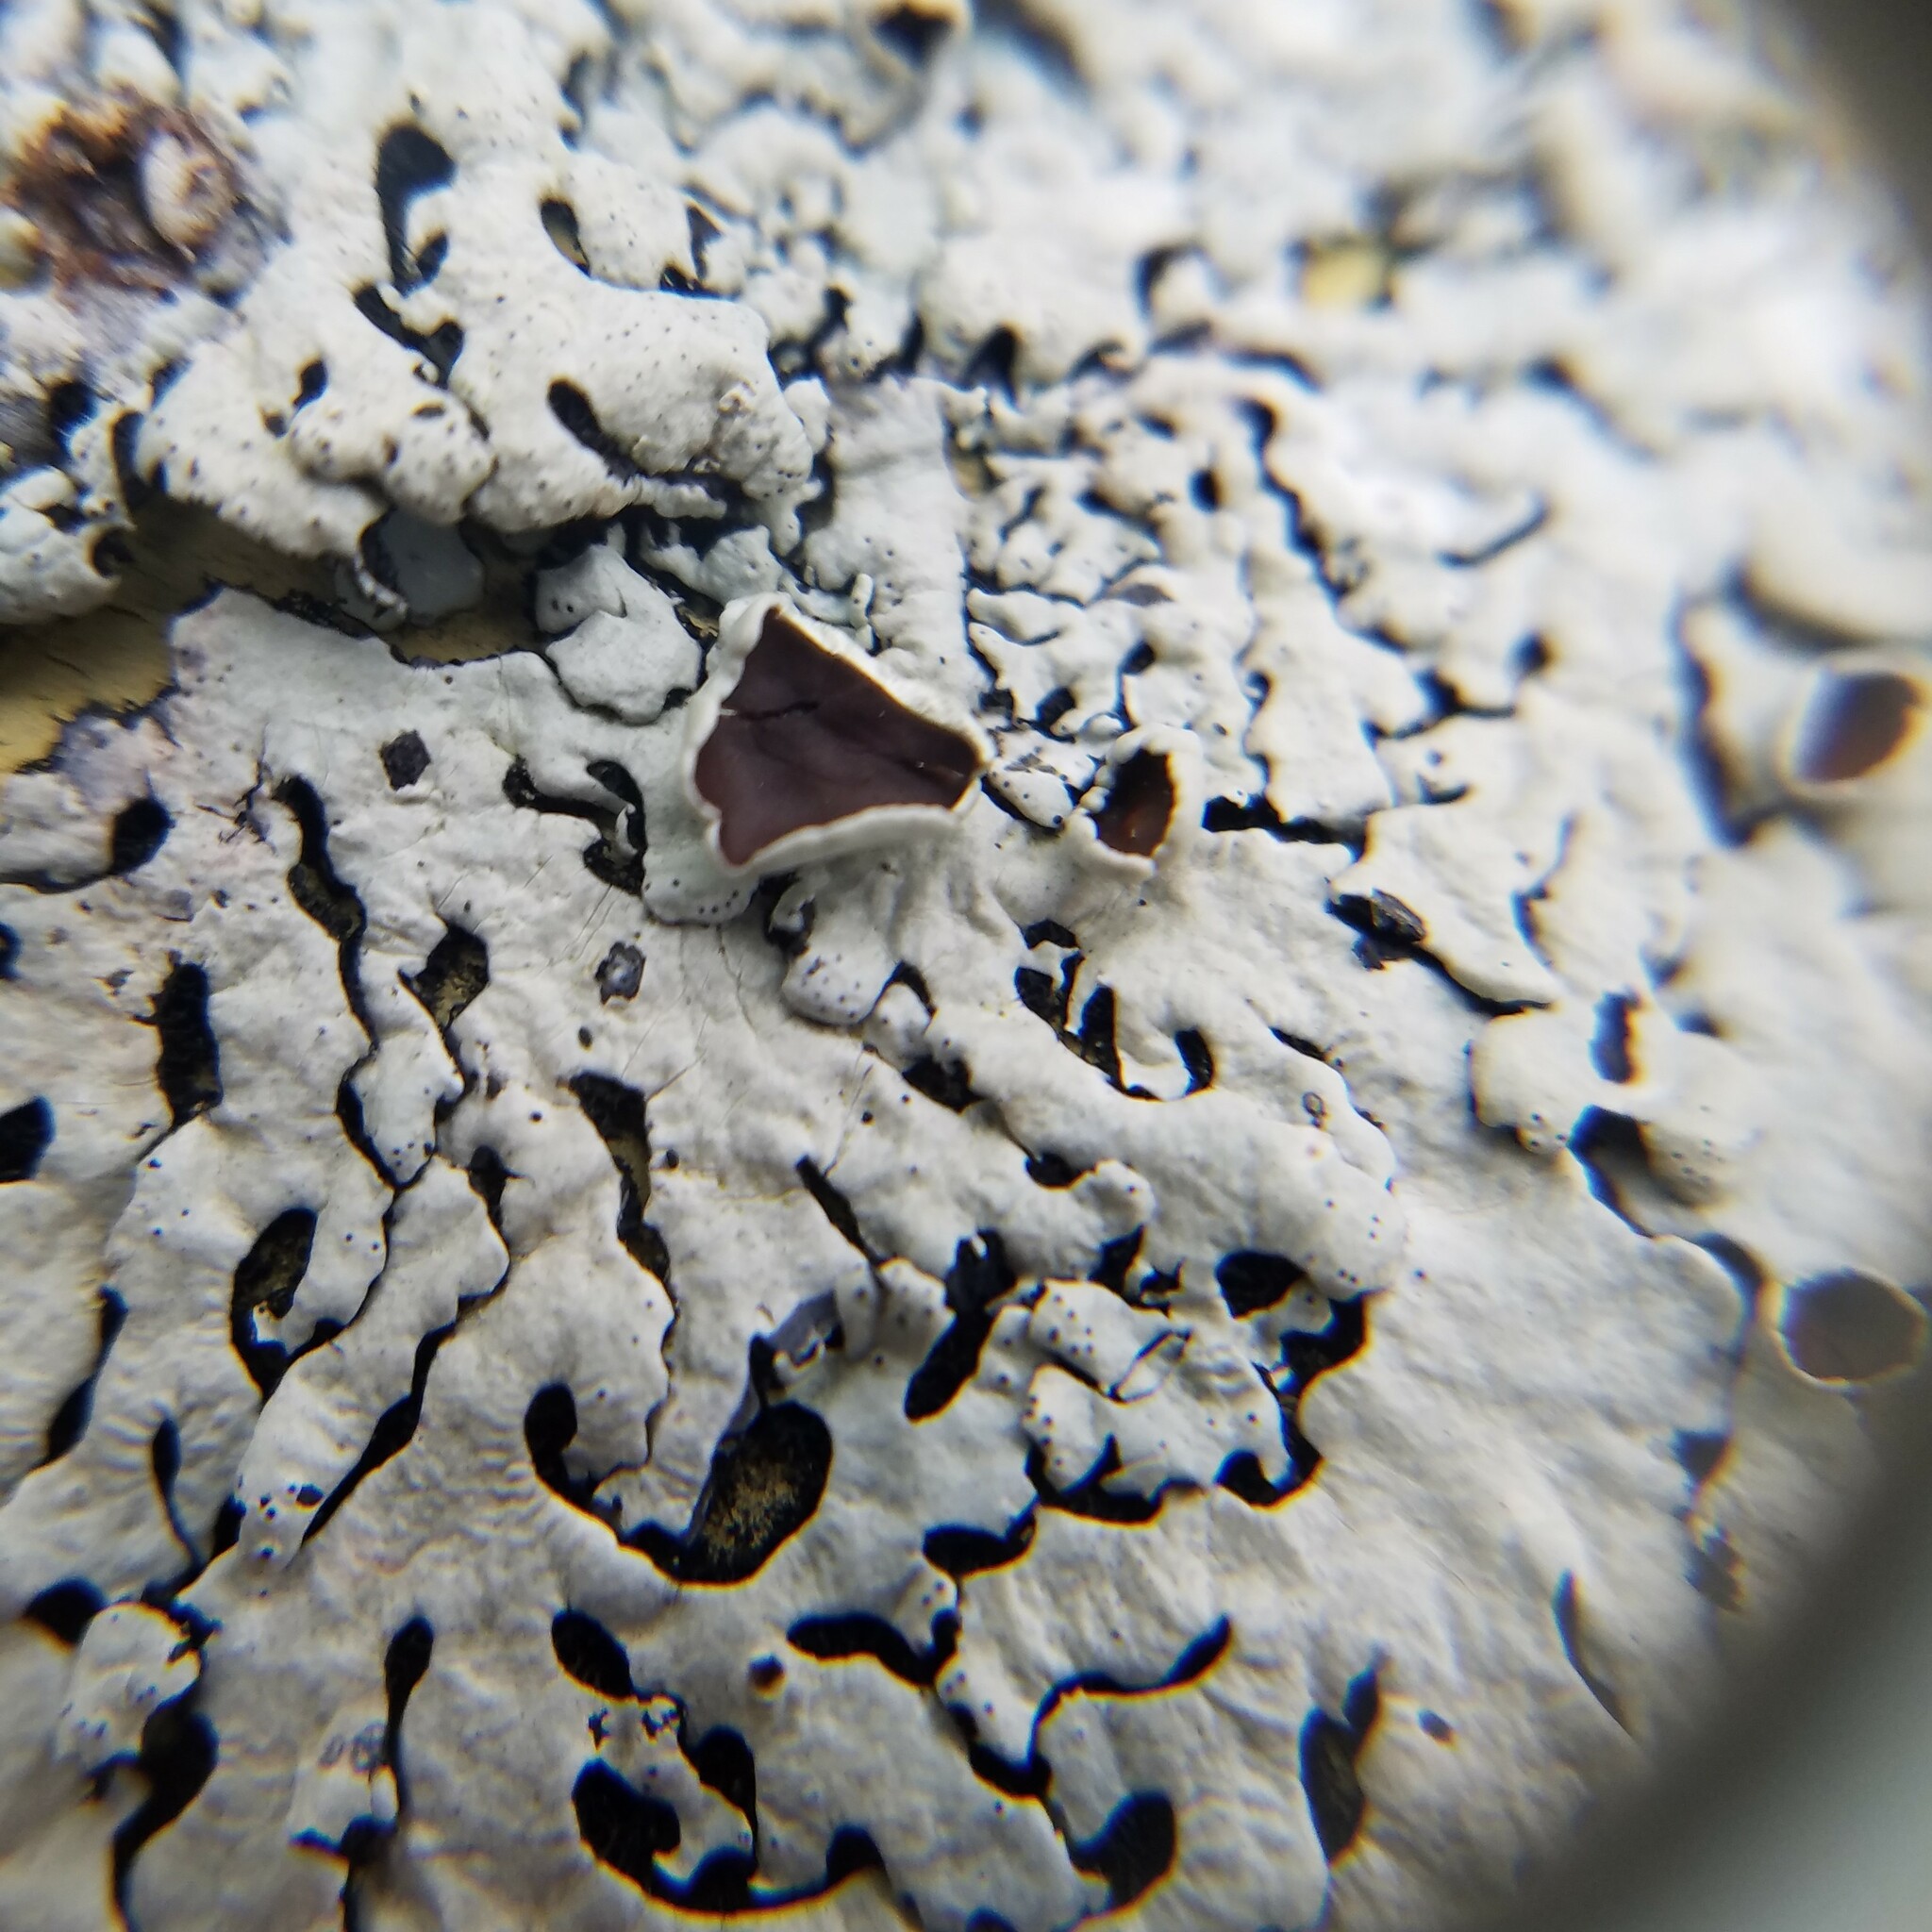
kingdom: Fungi
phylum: Ascomycota
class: Lecanoromycetes
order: Lecanorales
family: Parmeliaceae
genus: Hypotrachyna
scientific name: Hypotrachyna livida
